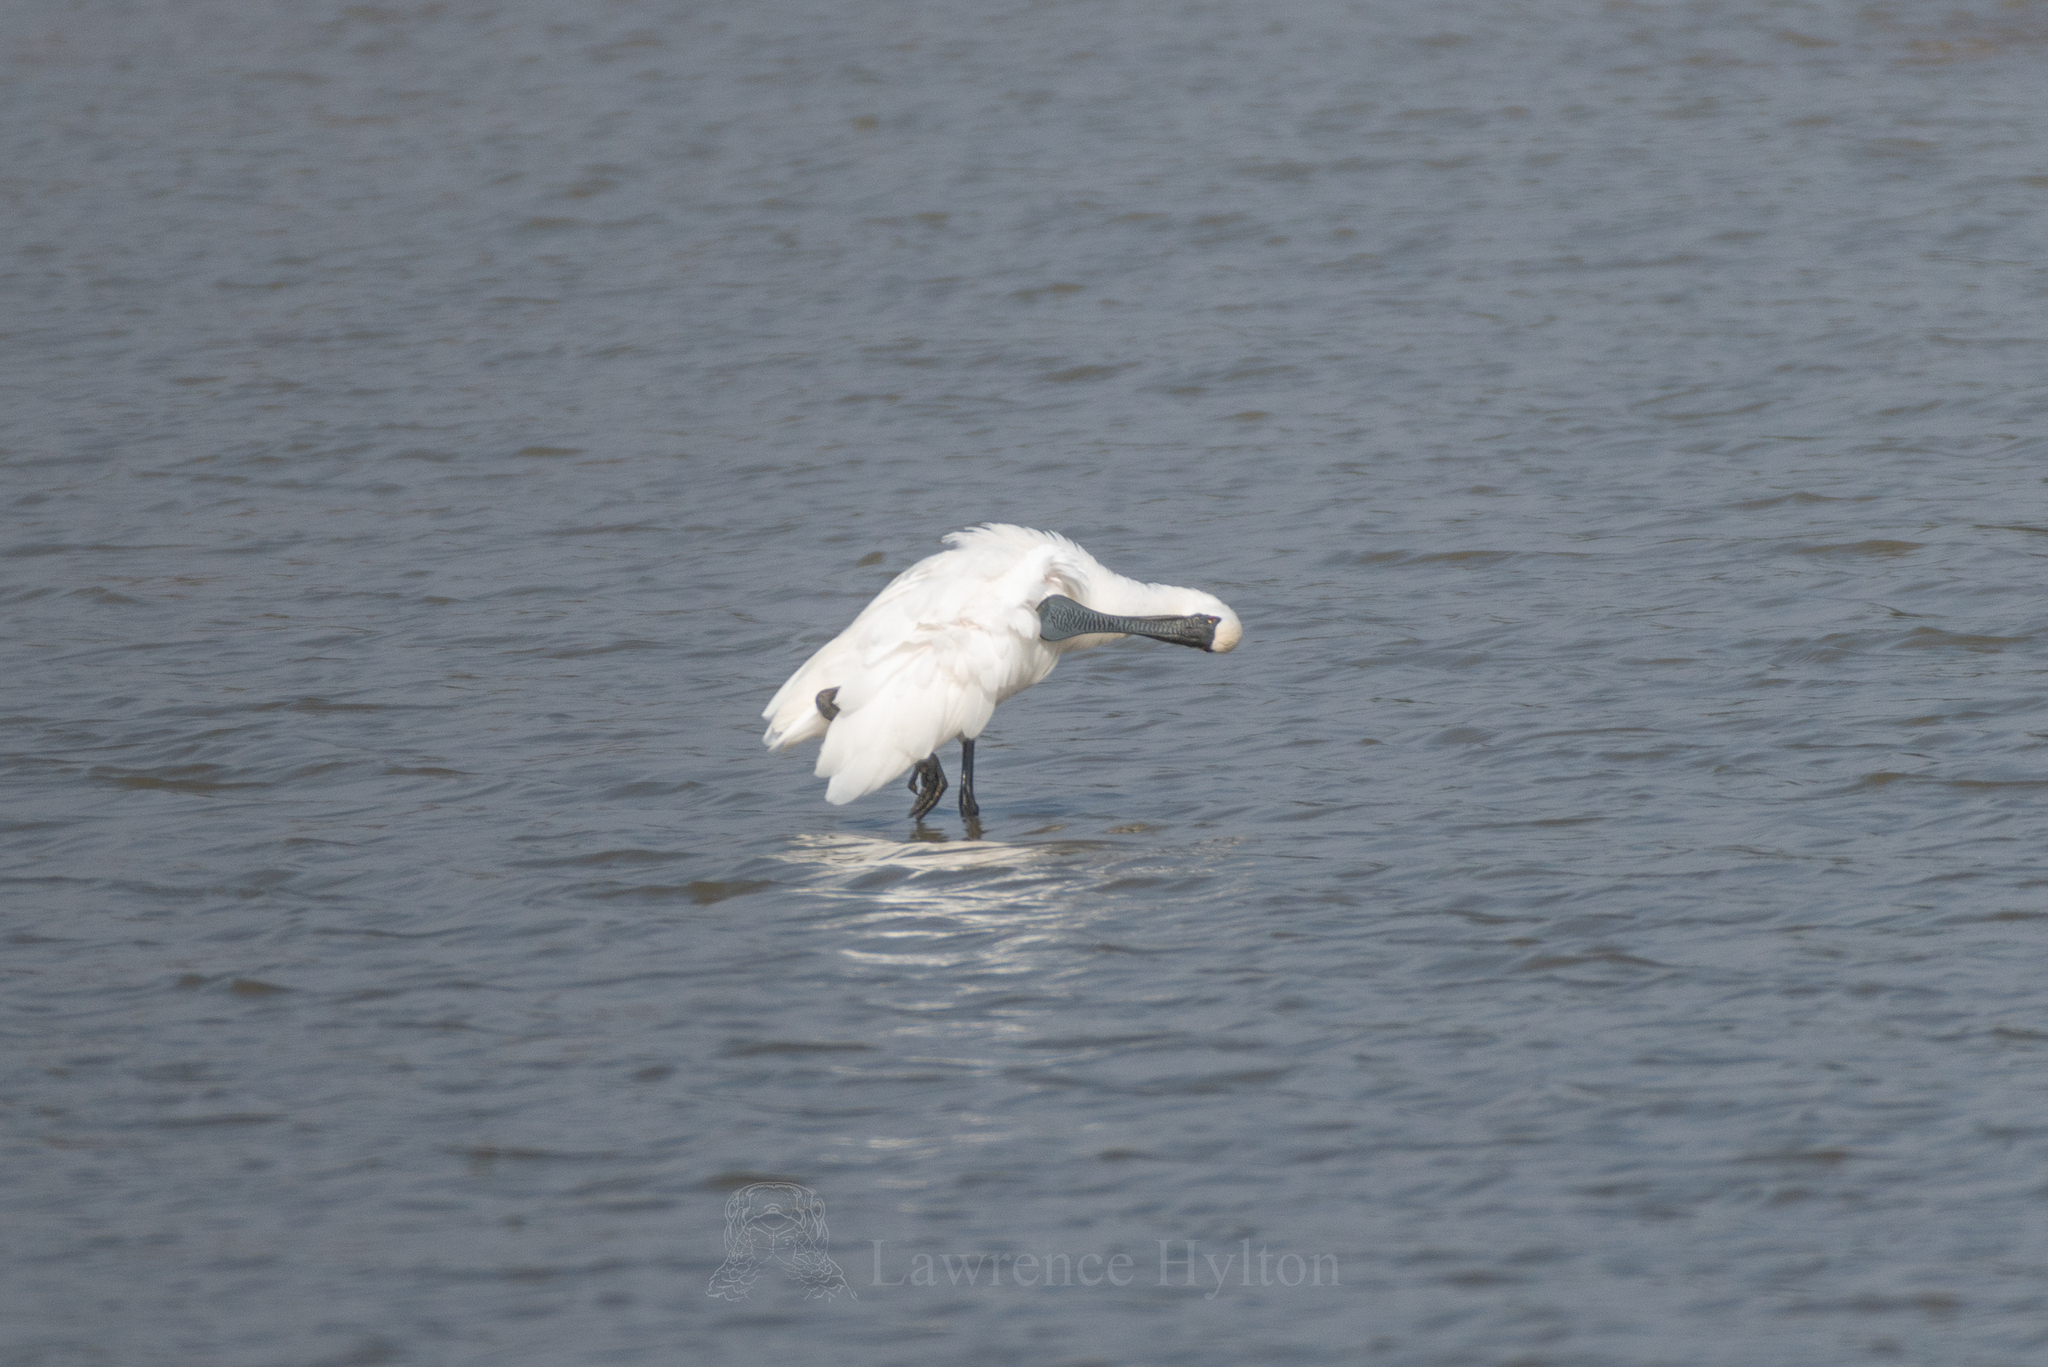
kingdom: Animalia
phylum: Chordata
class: Aves
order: Pelecaniformes
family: Threskiornithidae
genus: Platalea
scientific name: Platalea minor
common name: Black-faced spoonbill
